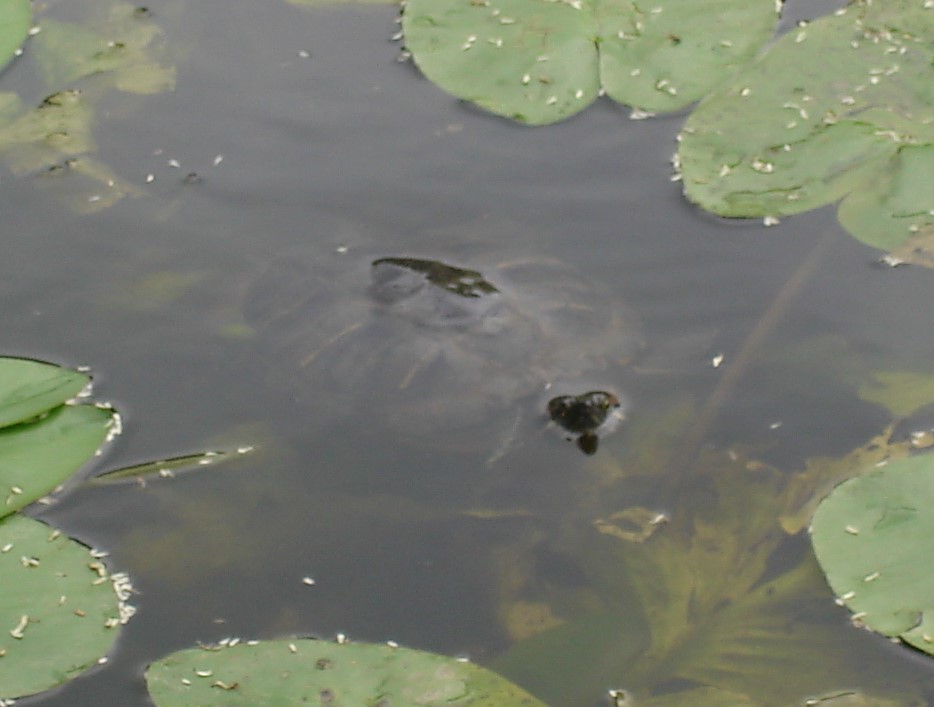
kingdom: Animalia
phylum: Chordata
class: Testudines
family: Emydidae
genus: Trachemys
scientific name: Trachemys scripta
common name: Slider
